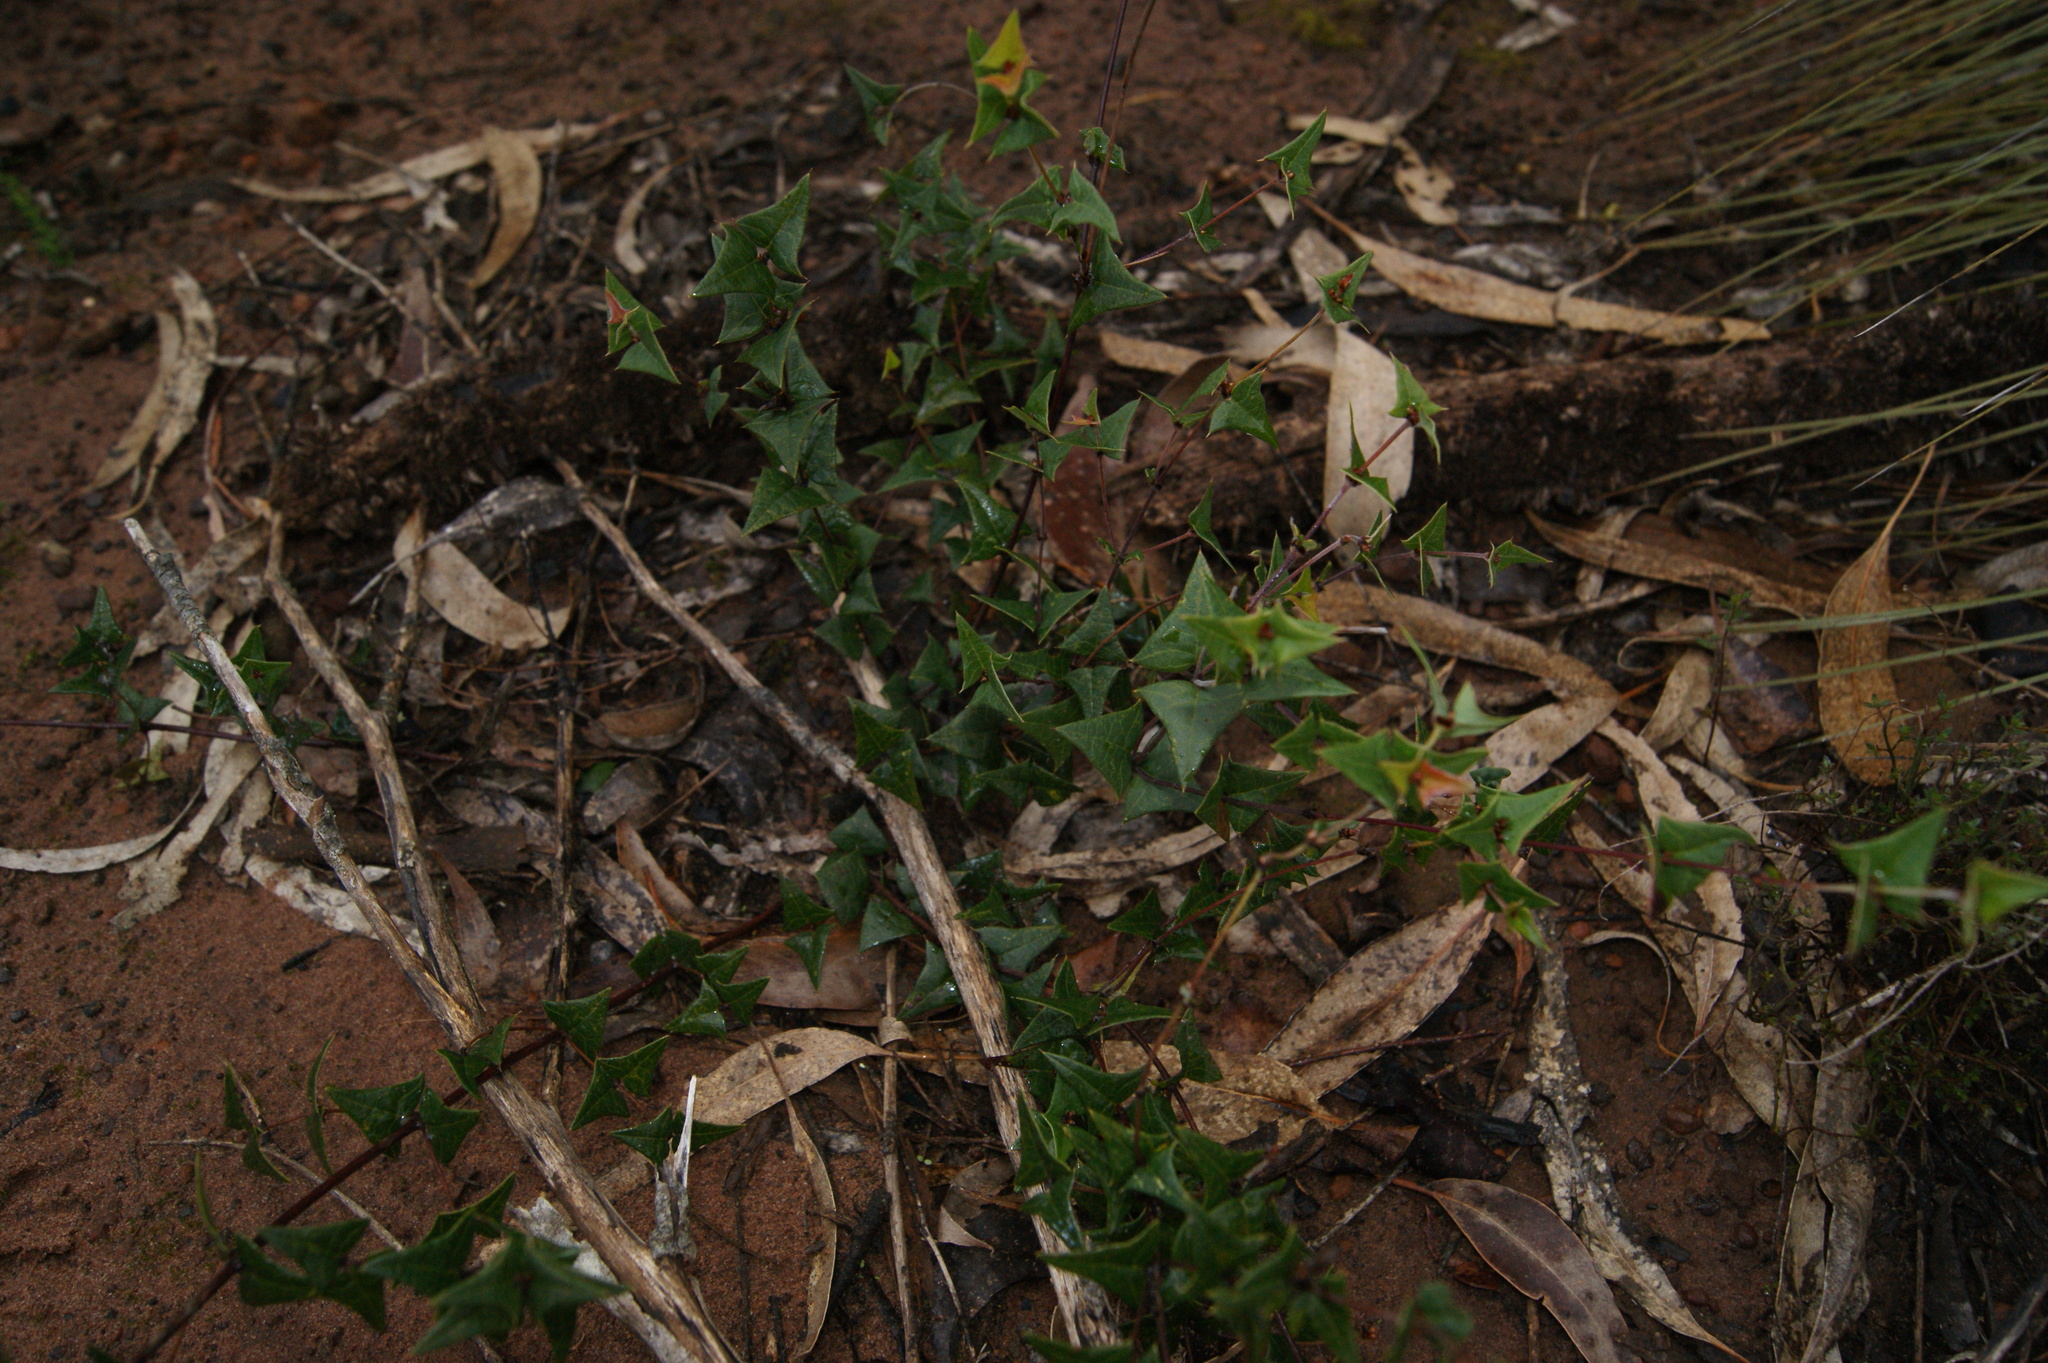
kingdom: Plantae
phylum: Tracheophyta
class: Magnoliopsida
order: Fabales
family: Fabaceae
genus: Platylobium
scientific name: Platylobium obtusangulum
